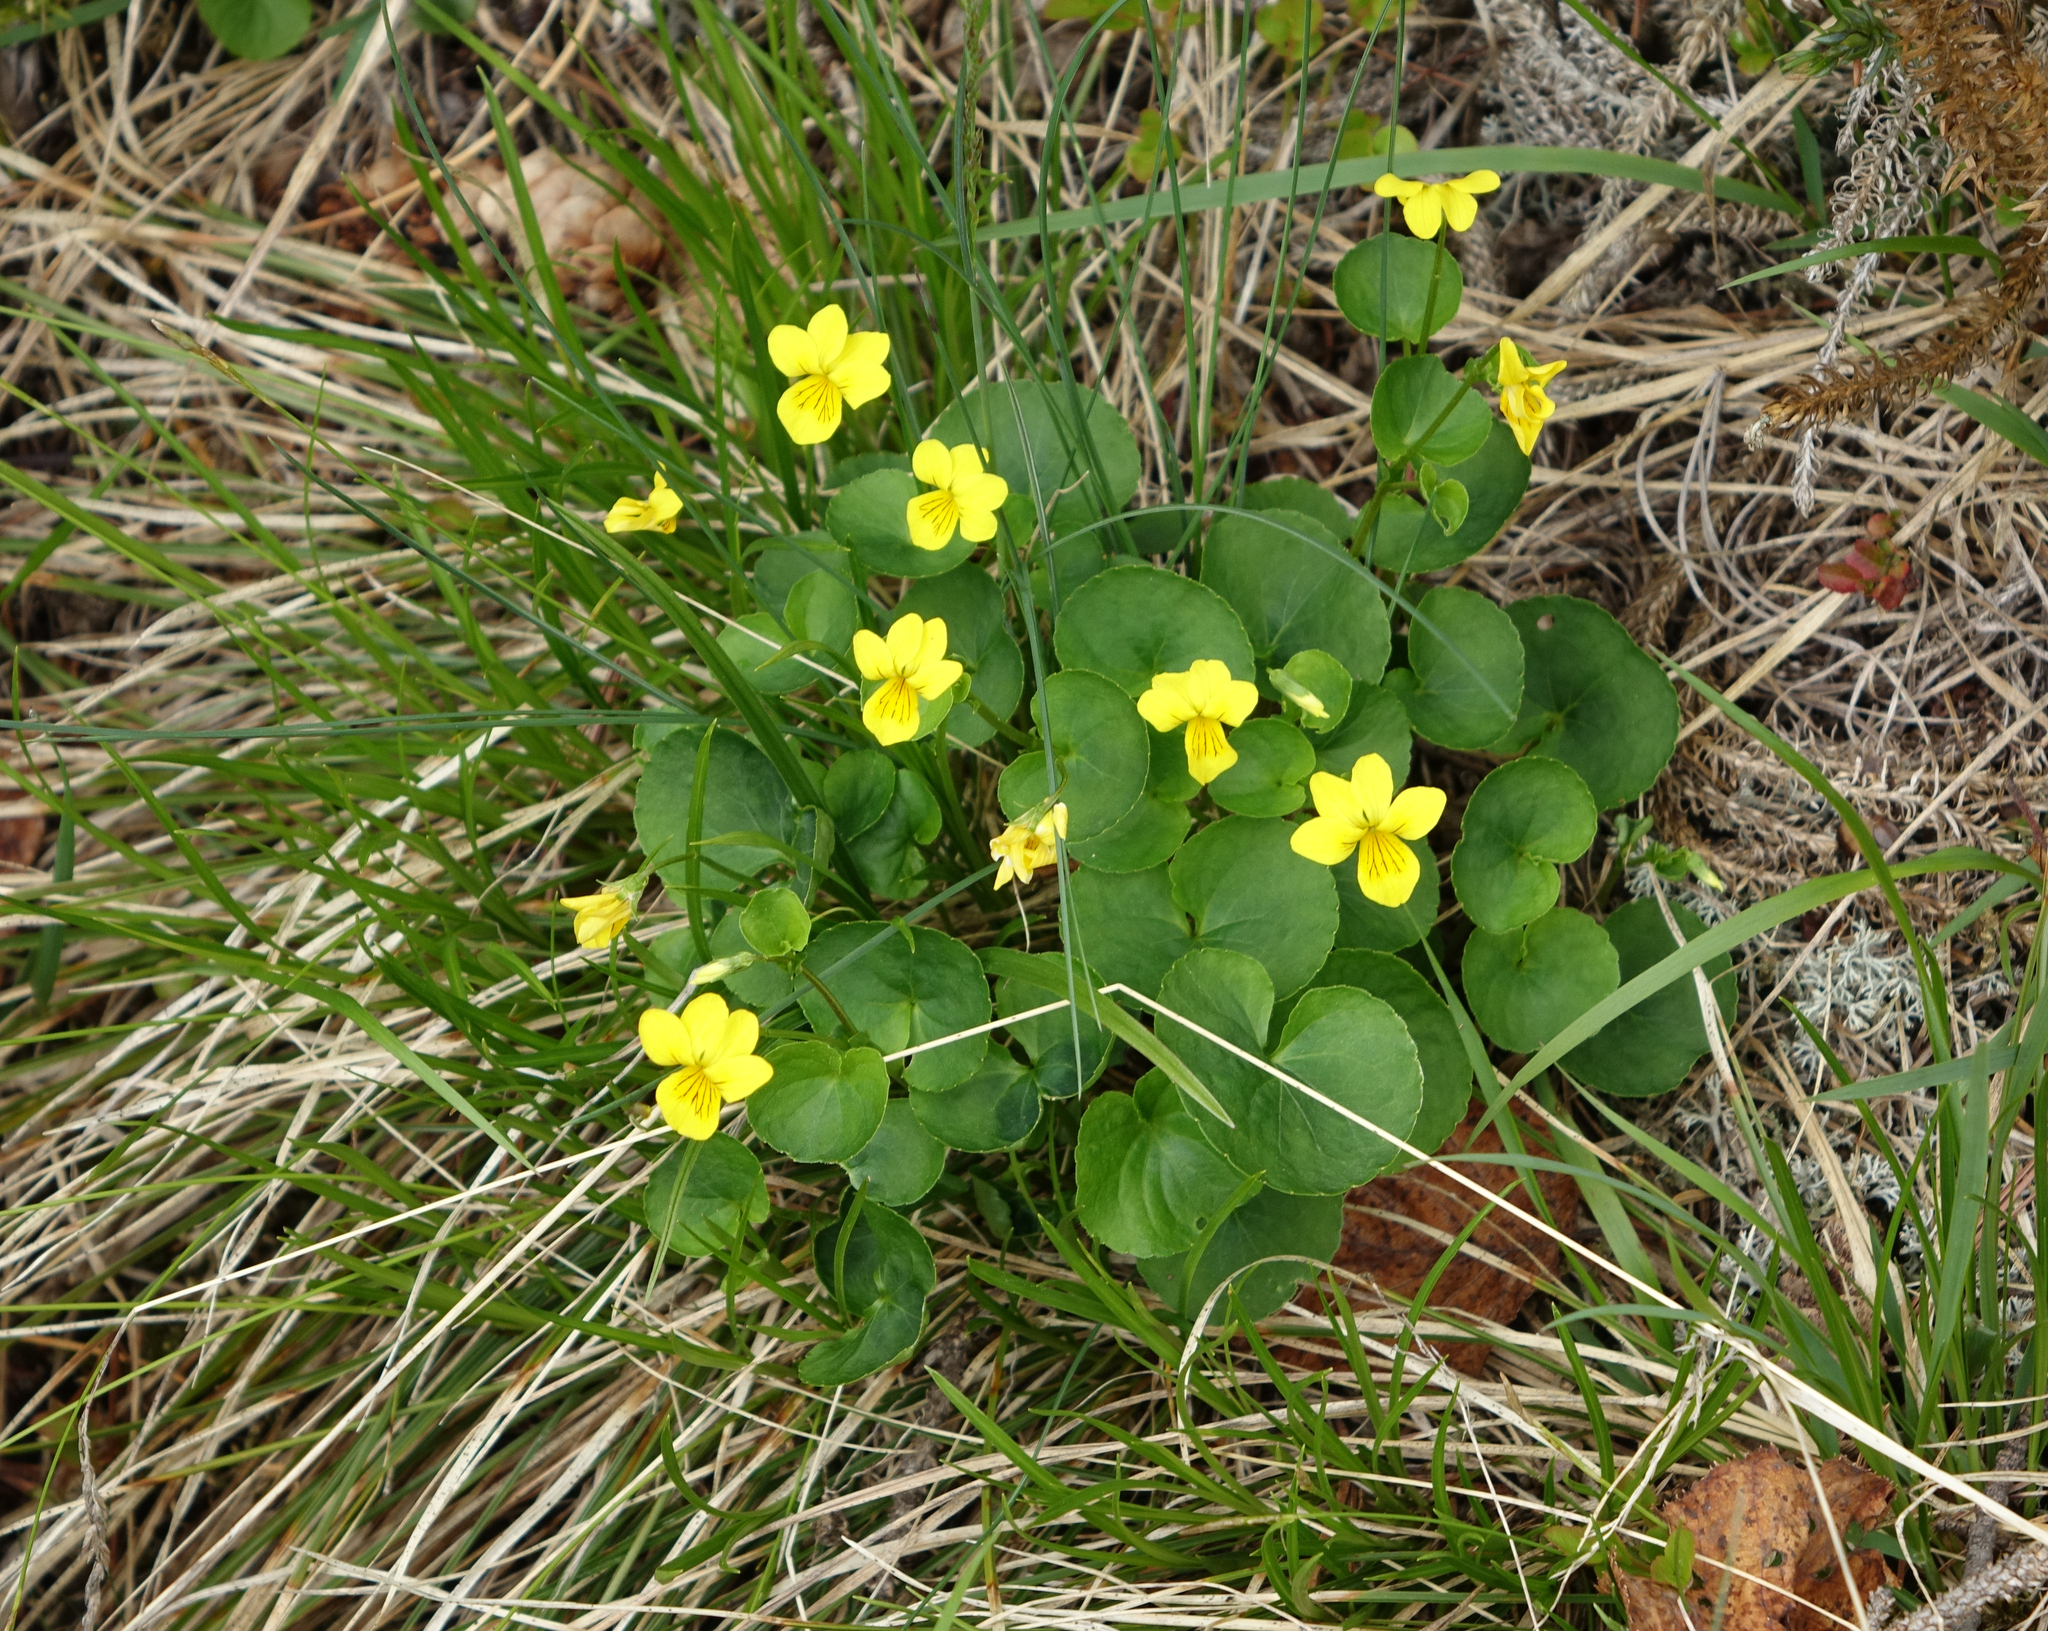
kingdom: Plantae
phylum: Tracheophyta
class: Magnoliopsida
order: Malpighiales
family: Violaceae
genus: Viola
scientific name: Viola biflora
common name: Alpine yellow violet
